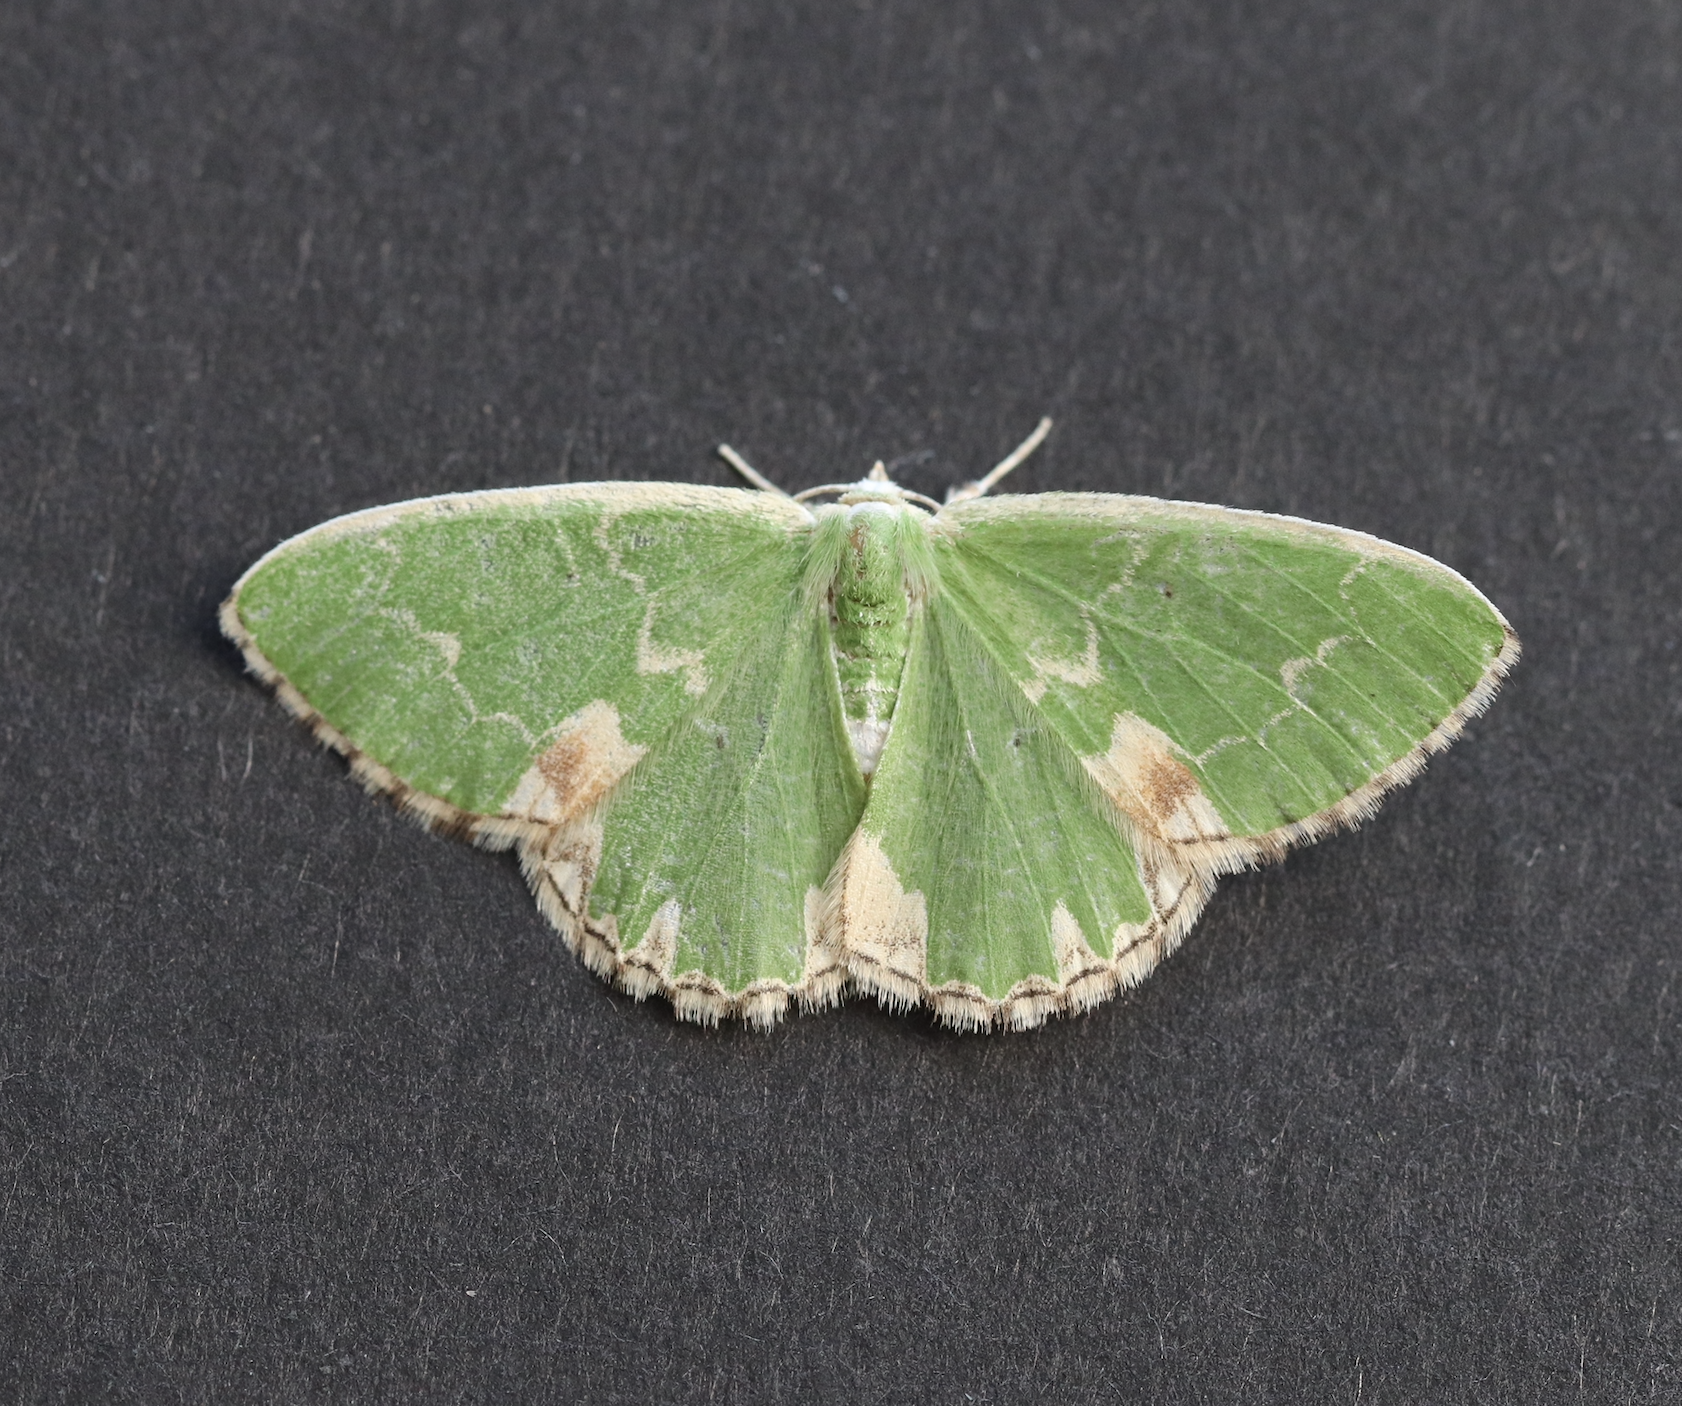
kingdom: Animalia
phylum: Arthropoda
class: Insecta
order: Lepidoptera
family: Geometridae
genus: Comibaena
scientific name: Comibaena bajularia
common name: Blotched emerald
